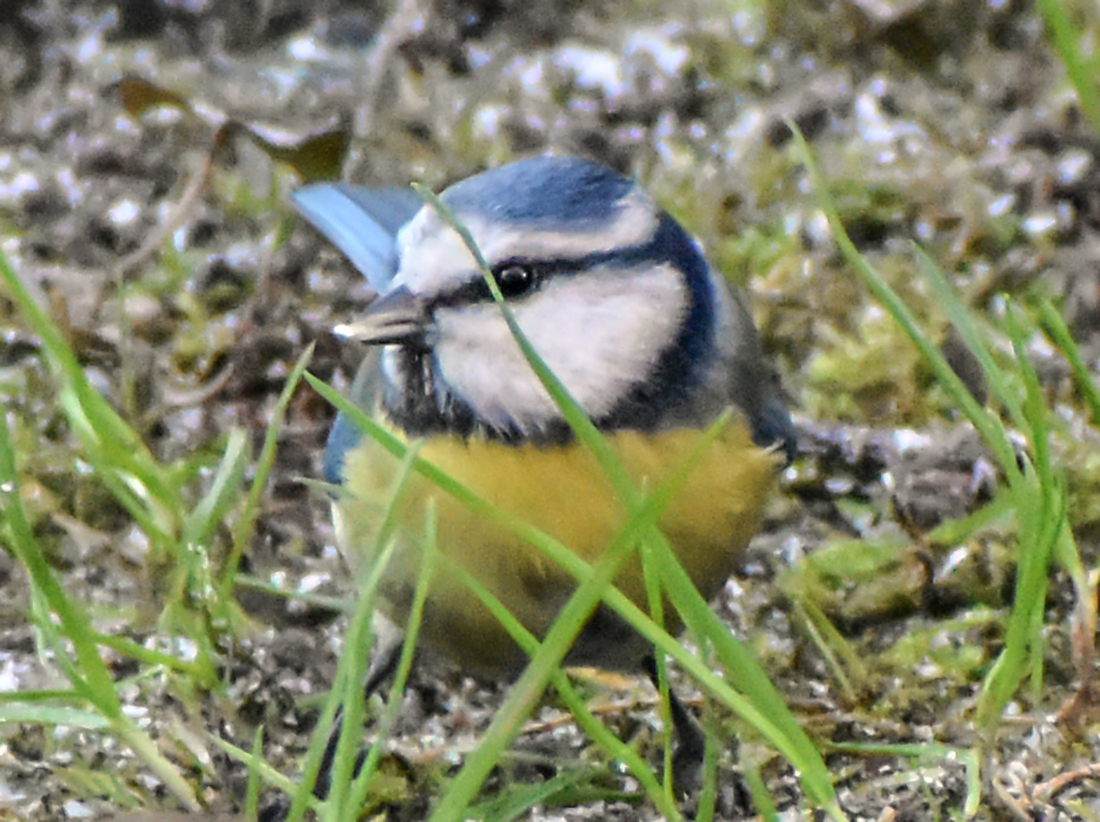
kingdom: Animalia
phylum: Chordata
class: Aves
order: Passeriformes
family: Paridae
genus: Cyanistes
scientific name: Cyanistes caeruleus
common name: Eurasian blue tit
